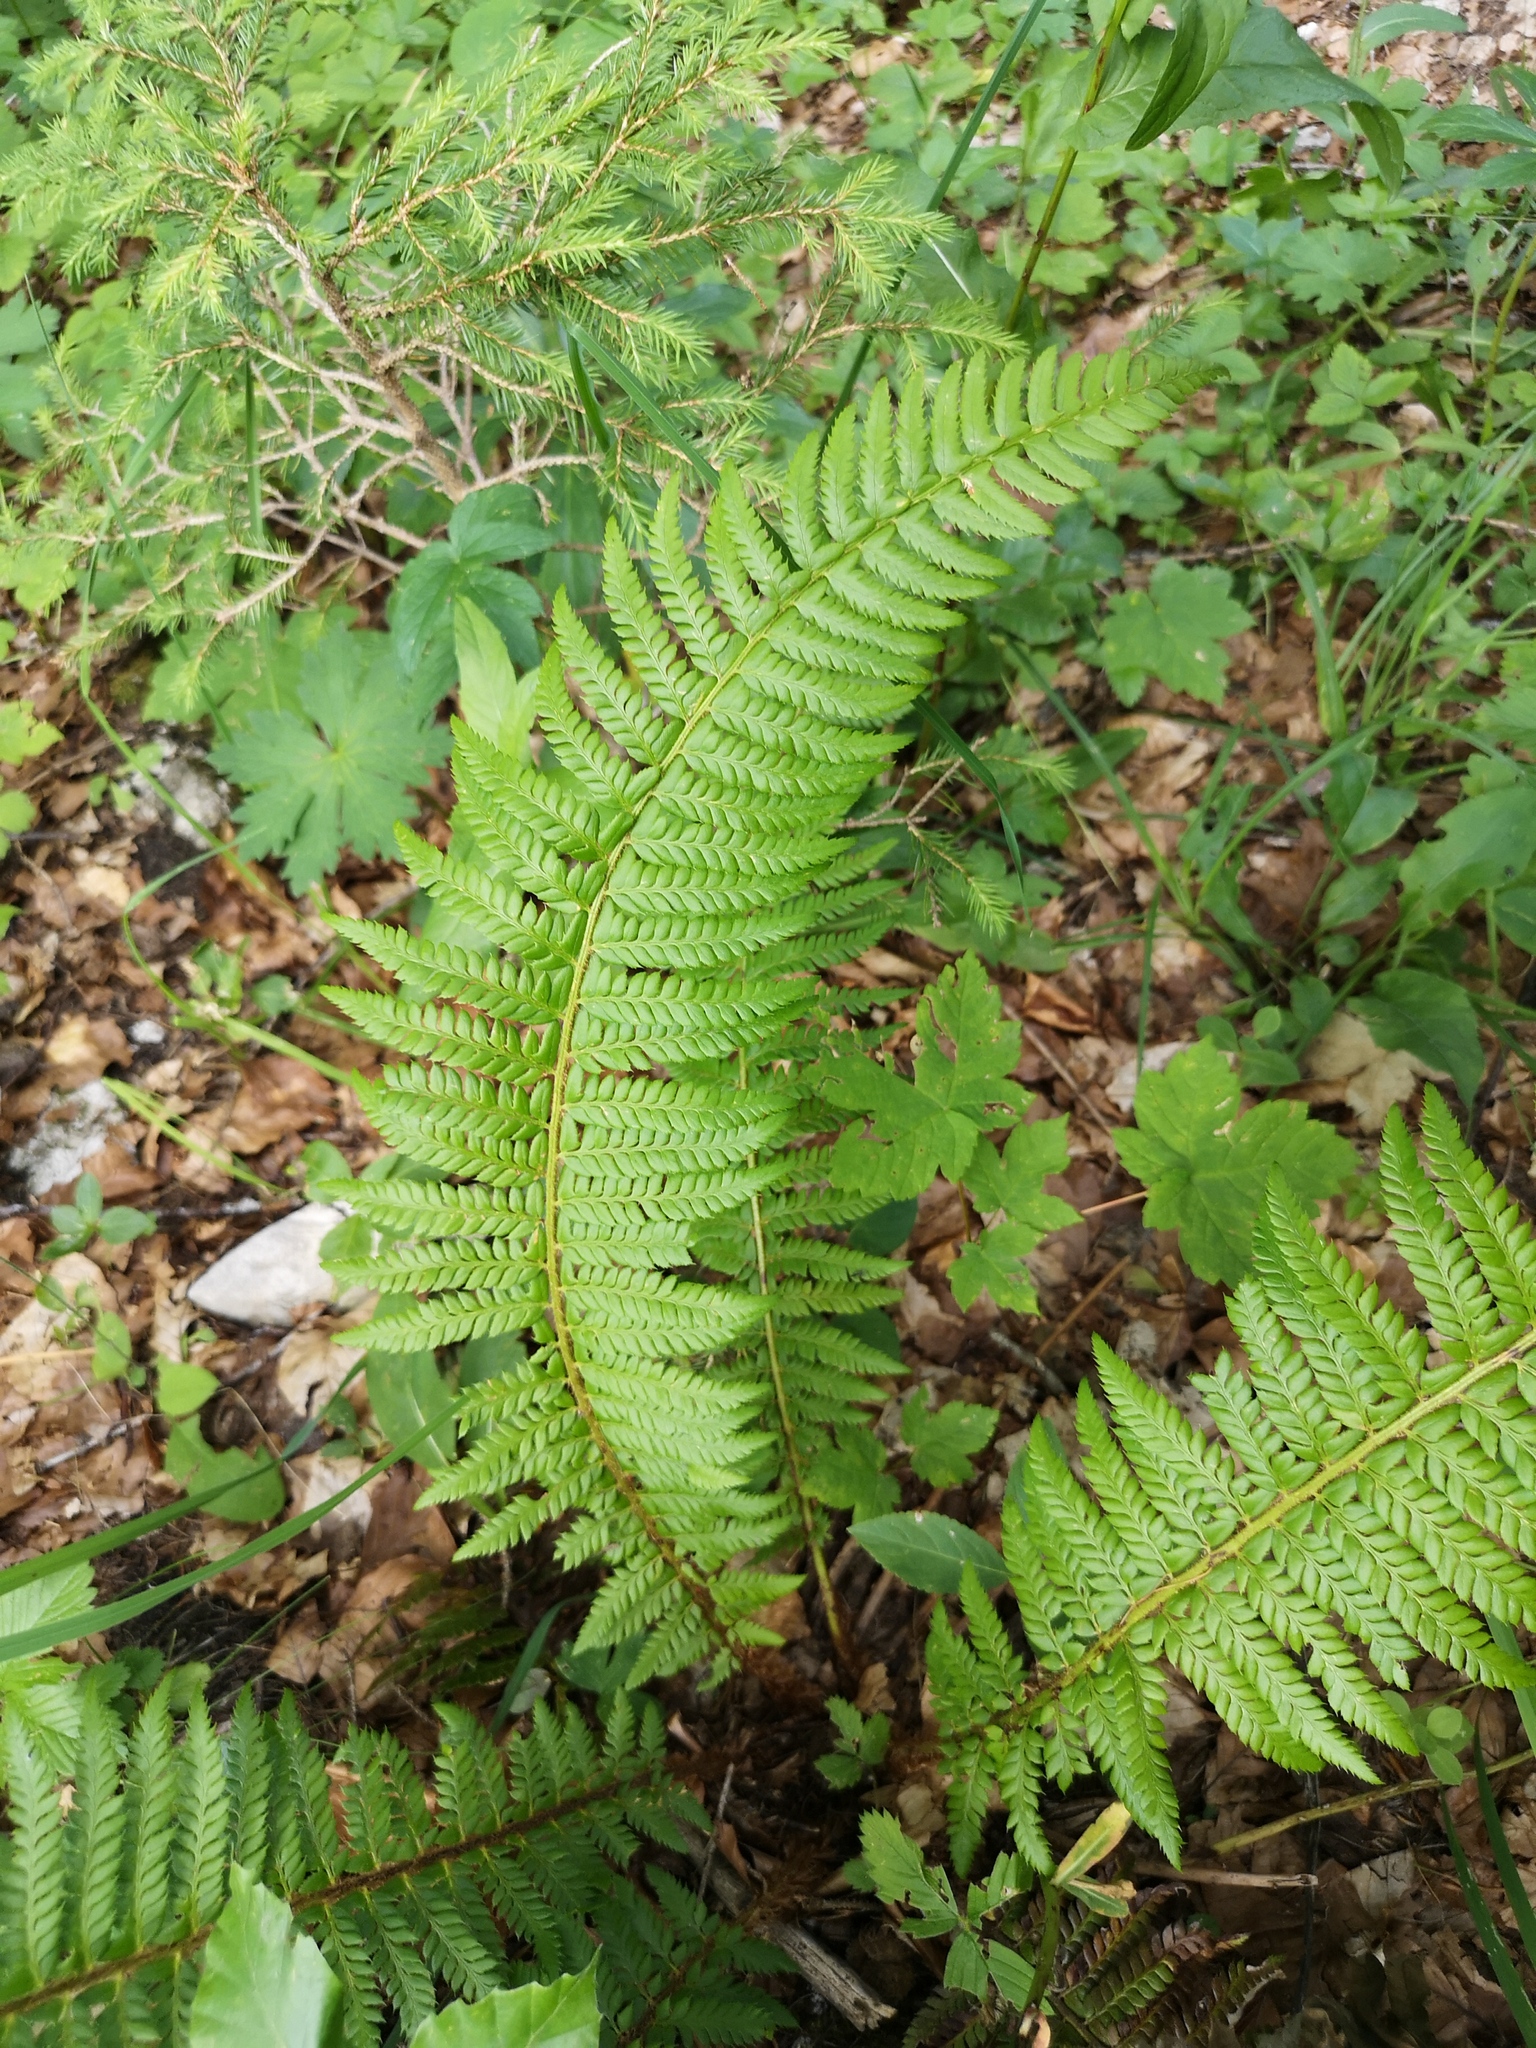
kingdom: Plantae
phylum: Tracheophyta
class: Polypodiopsida
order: Polypodiales
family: Dryopteridaceae
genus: Polystichum
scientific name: Polystichum aculeatum
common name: Hard shield-fern
